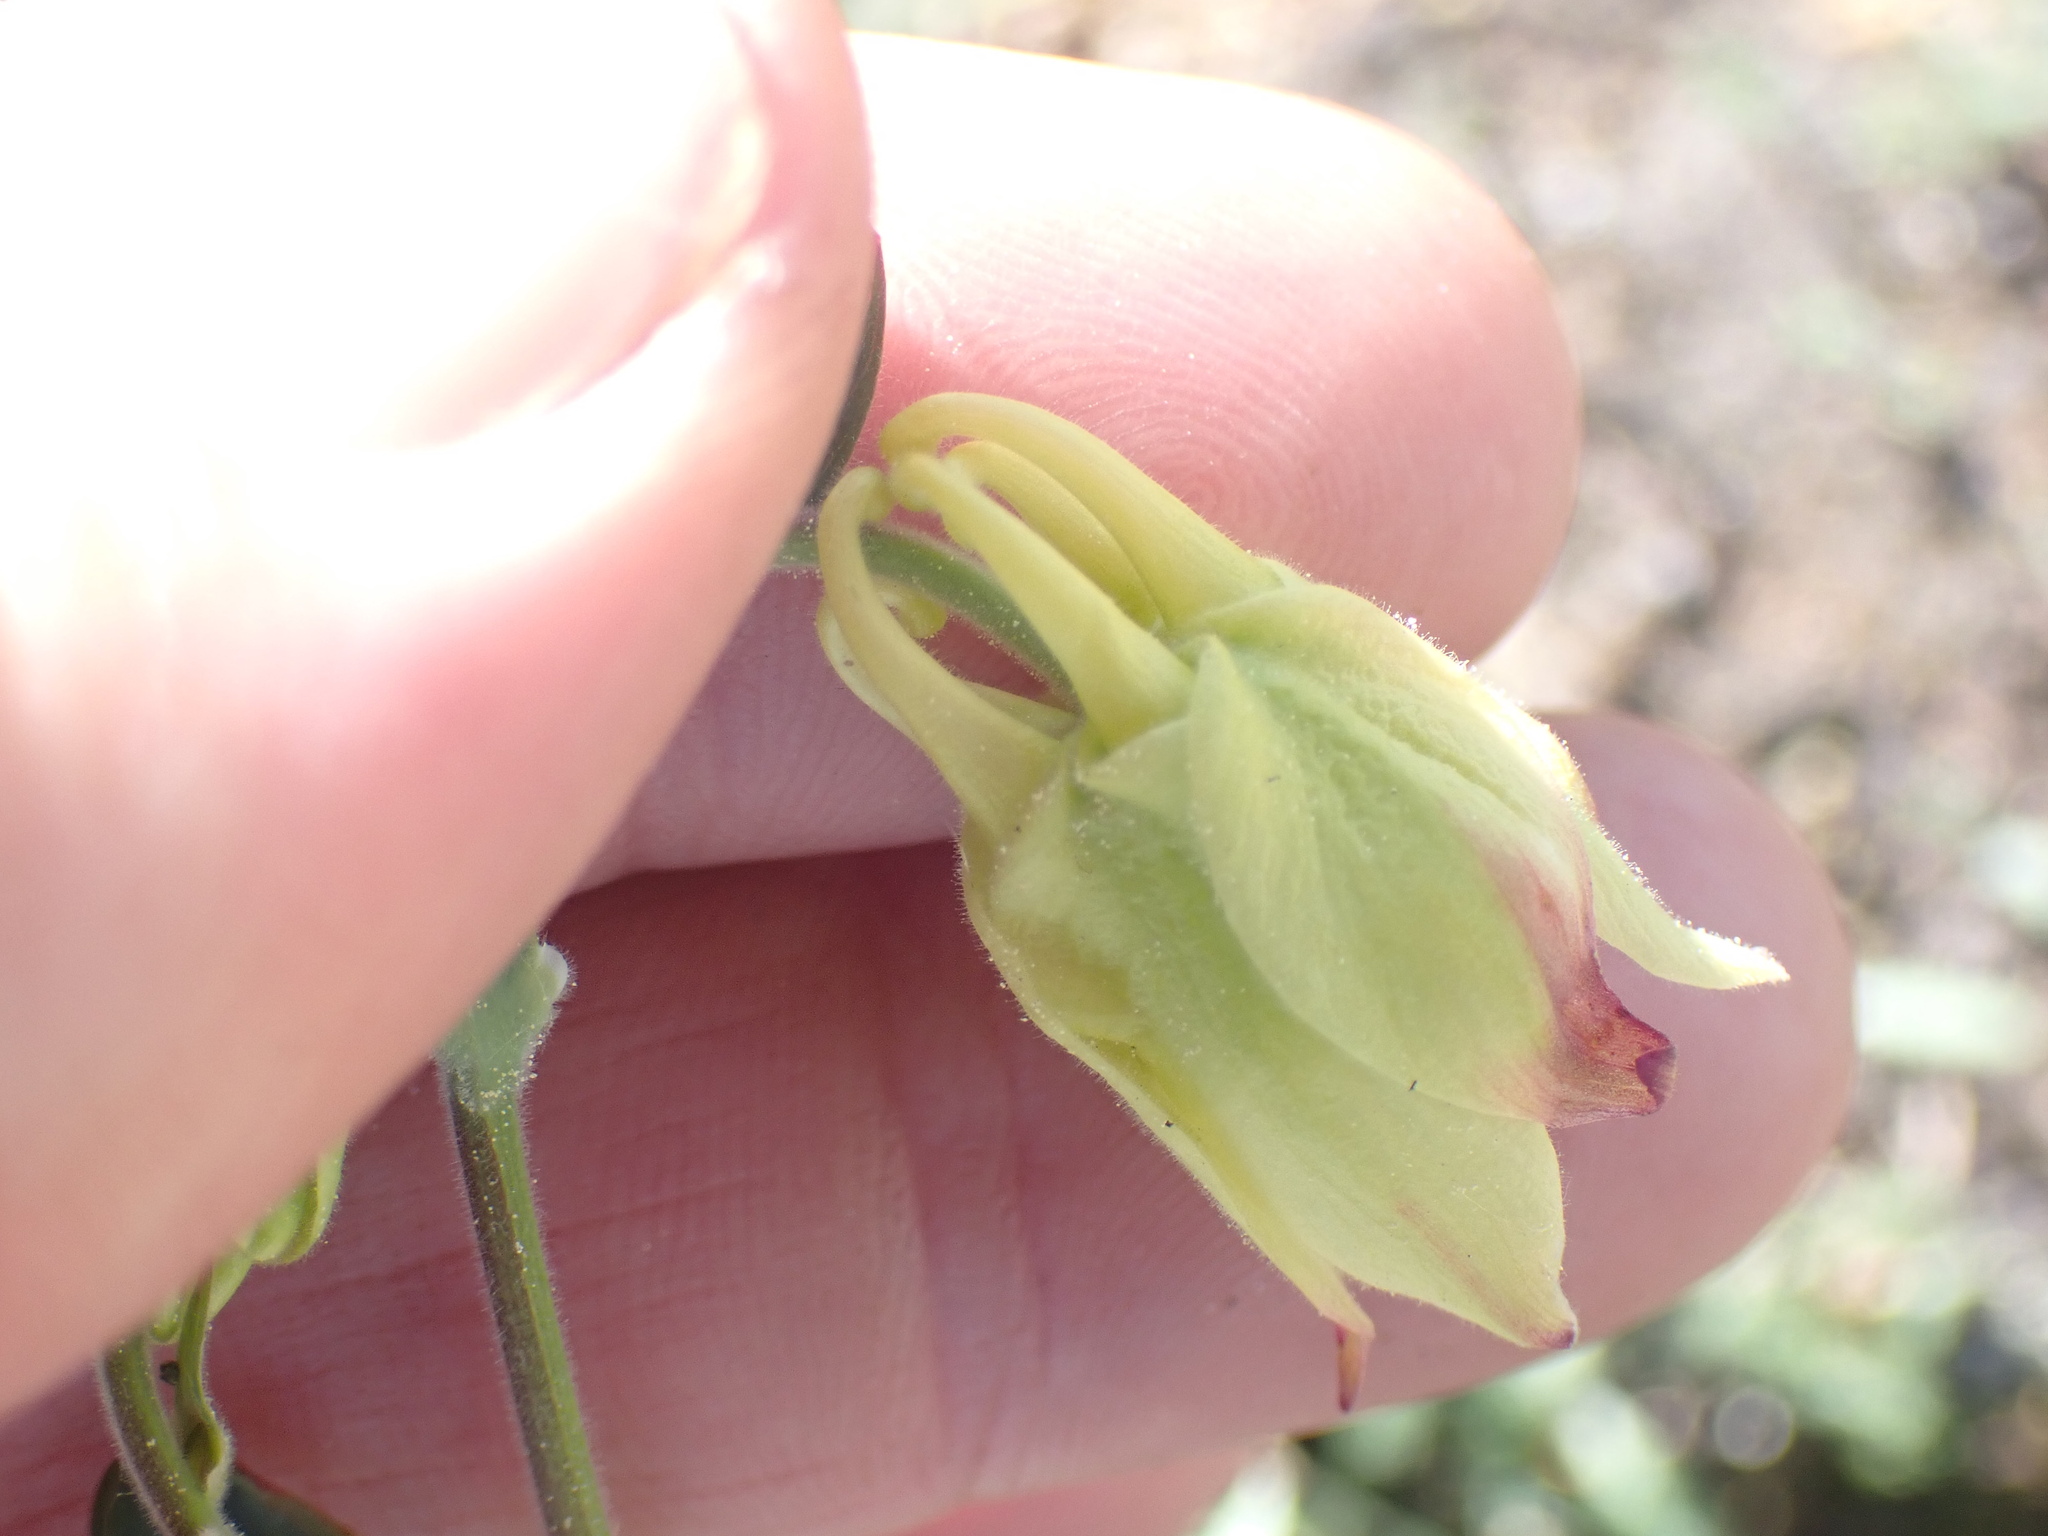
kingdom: Plantae
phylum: Tracheophyta
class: Magnoliopsida
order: Ranunculales
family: Ranunculaceae
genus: Aquilegia
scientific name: Aquilegia flavescens
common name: Yellow columbine
